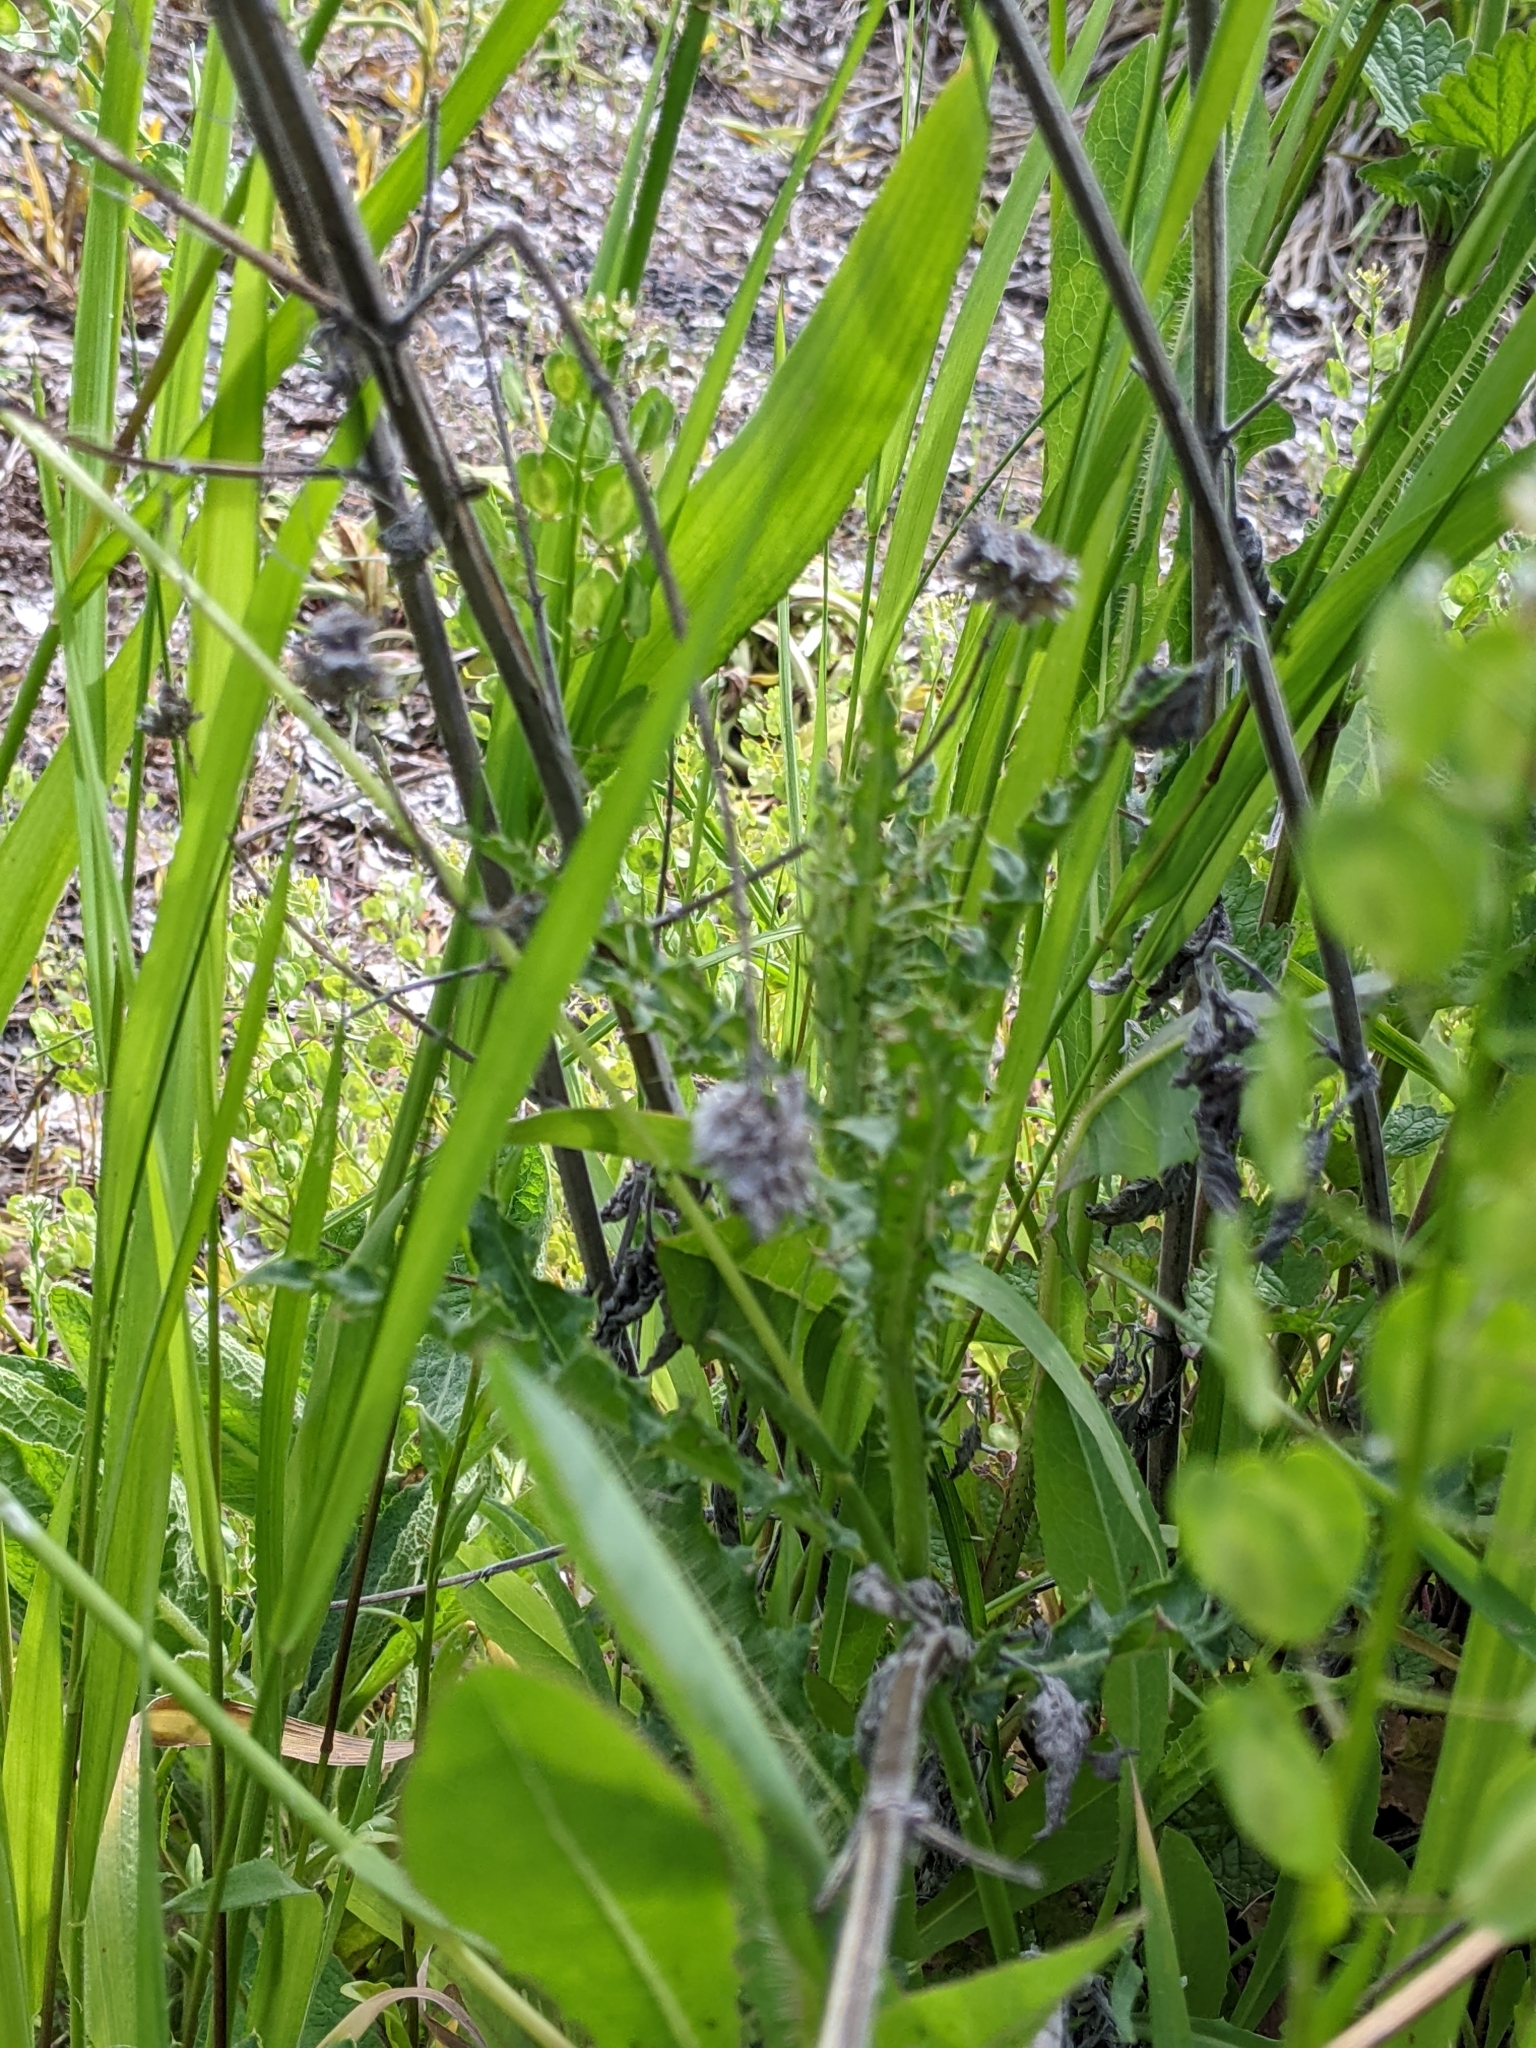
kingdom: Plantae
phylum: Tracheophyta
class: Magnoliopsida
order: Brassicales
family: Brassicaceae
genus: Thlaspi
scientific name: Thlaspi arvense
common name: Field pennycress
